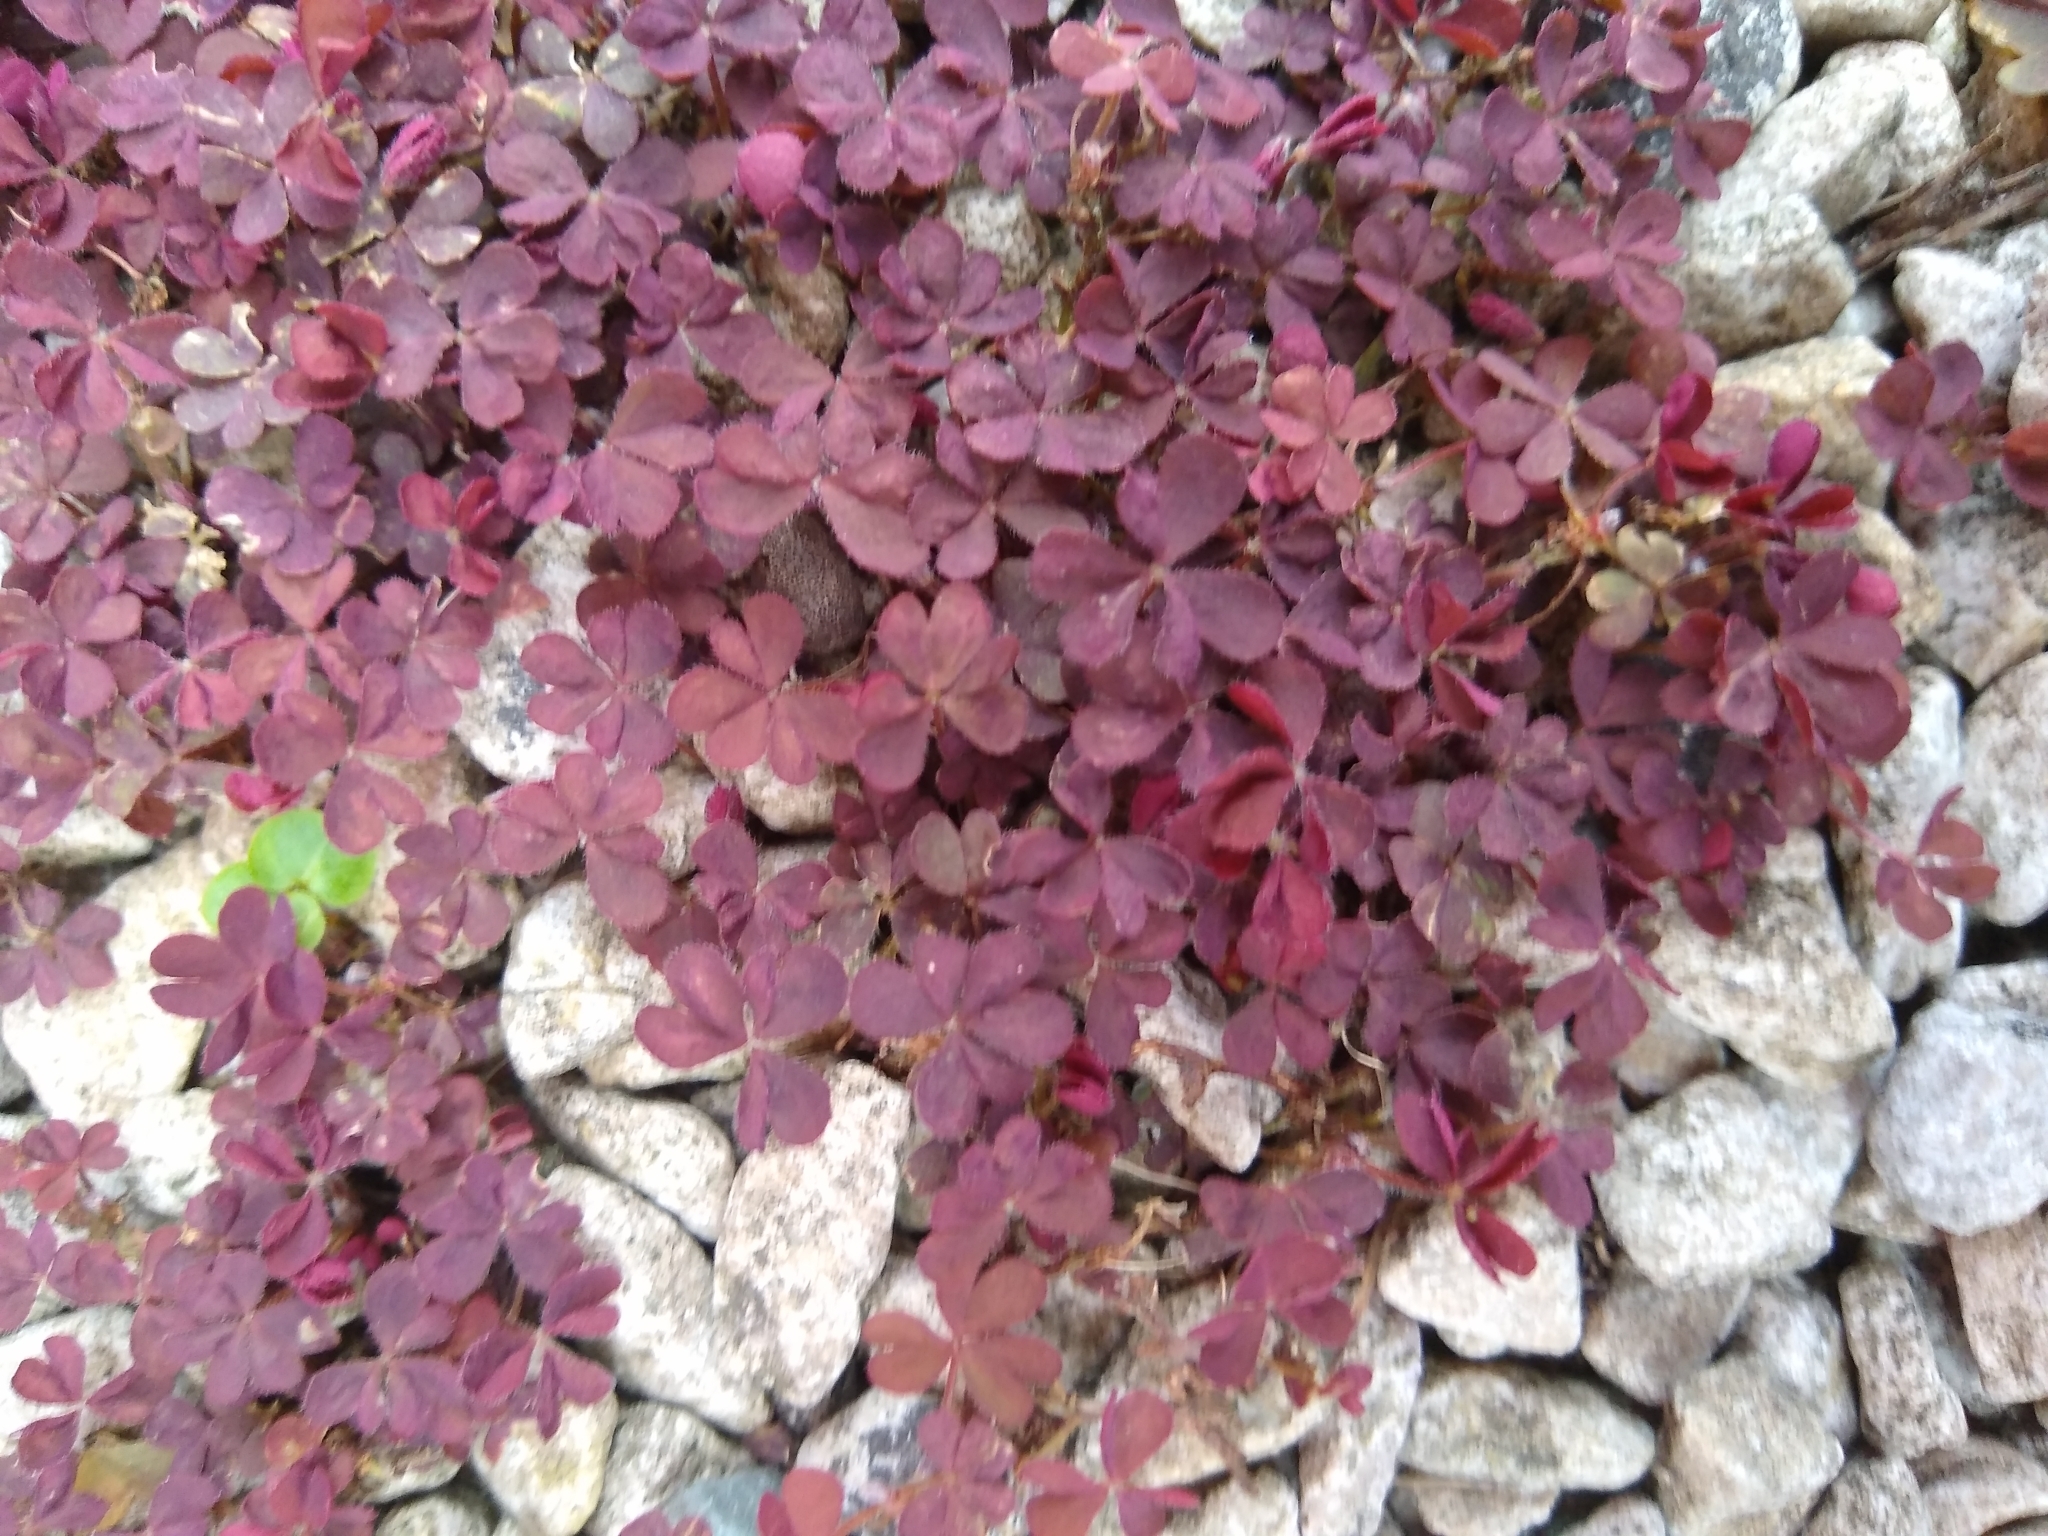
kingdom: Plantae
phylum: Tracheophyta
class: Magnoliopsida
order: Oxalidales
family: Oxalidaceae
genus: Oxalis
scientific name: Oxalis corniculata
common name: Procumbent yellow-sorrel
